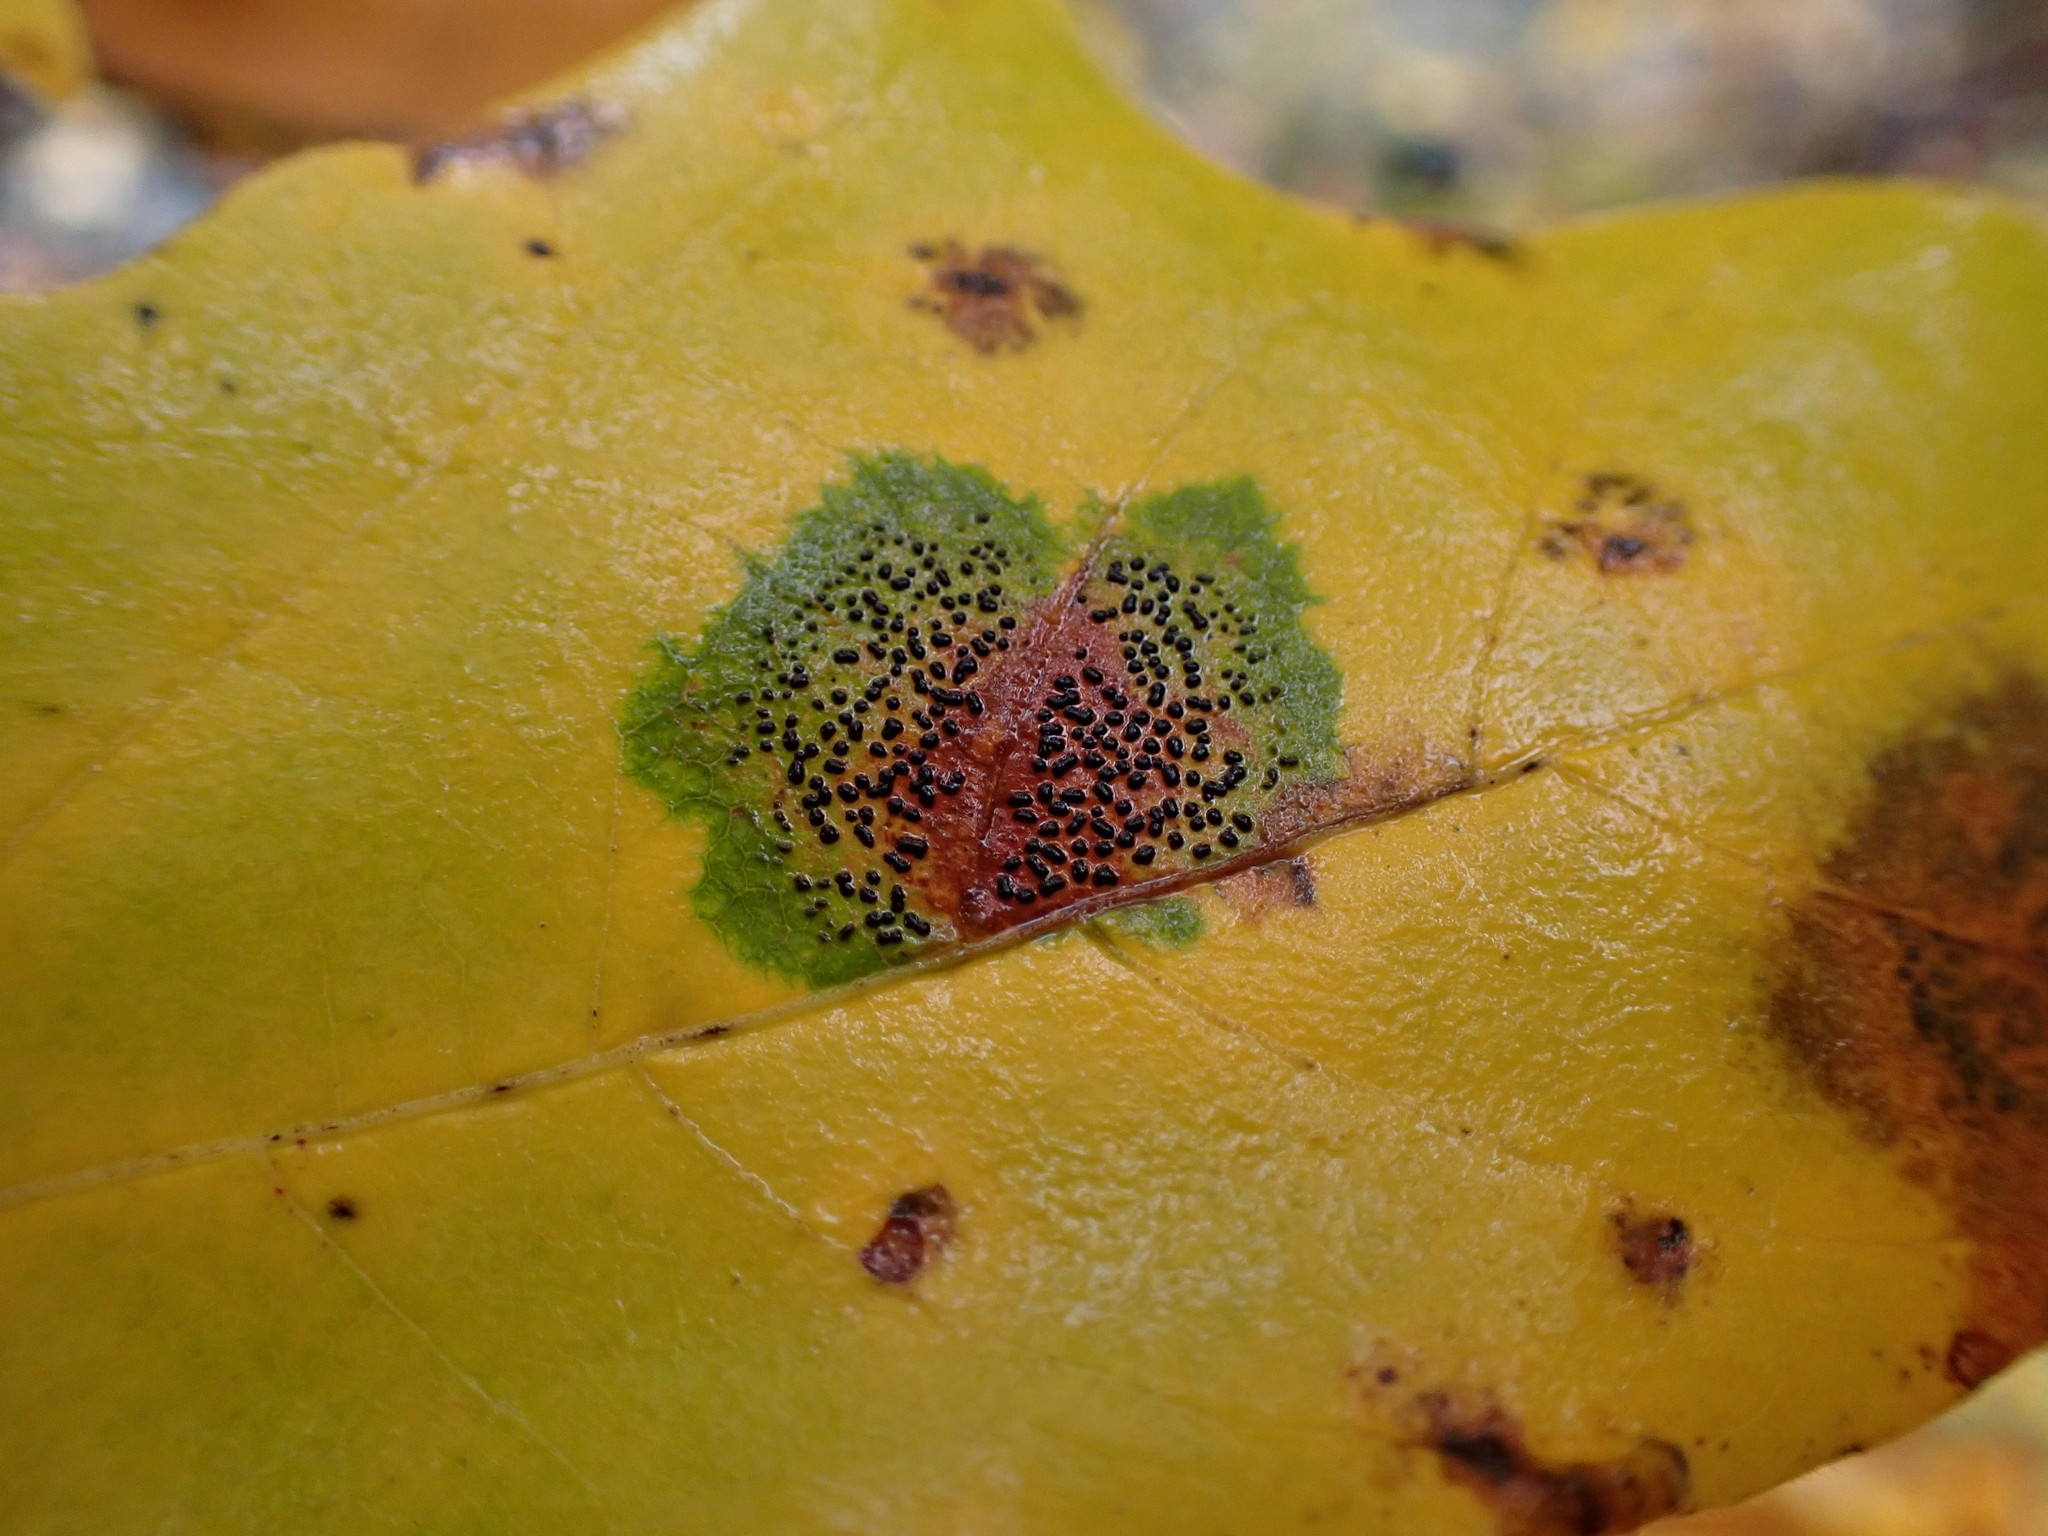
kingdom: Fungi
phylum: Ascomycota
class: Leotiomycetes
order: Rhytismatales
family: Rhytismataceae
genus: Rhytisma
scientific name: Rhytisma punctatum
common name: Speckled tar spot
